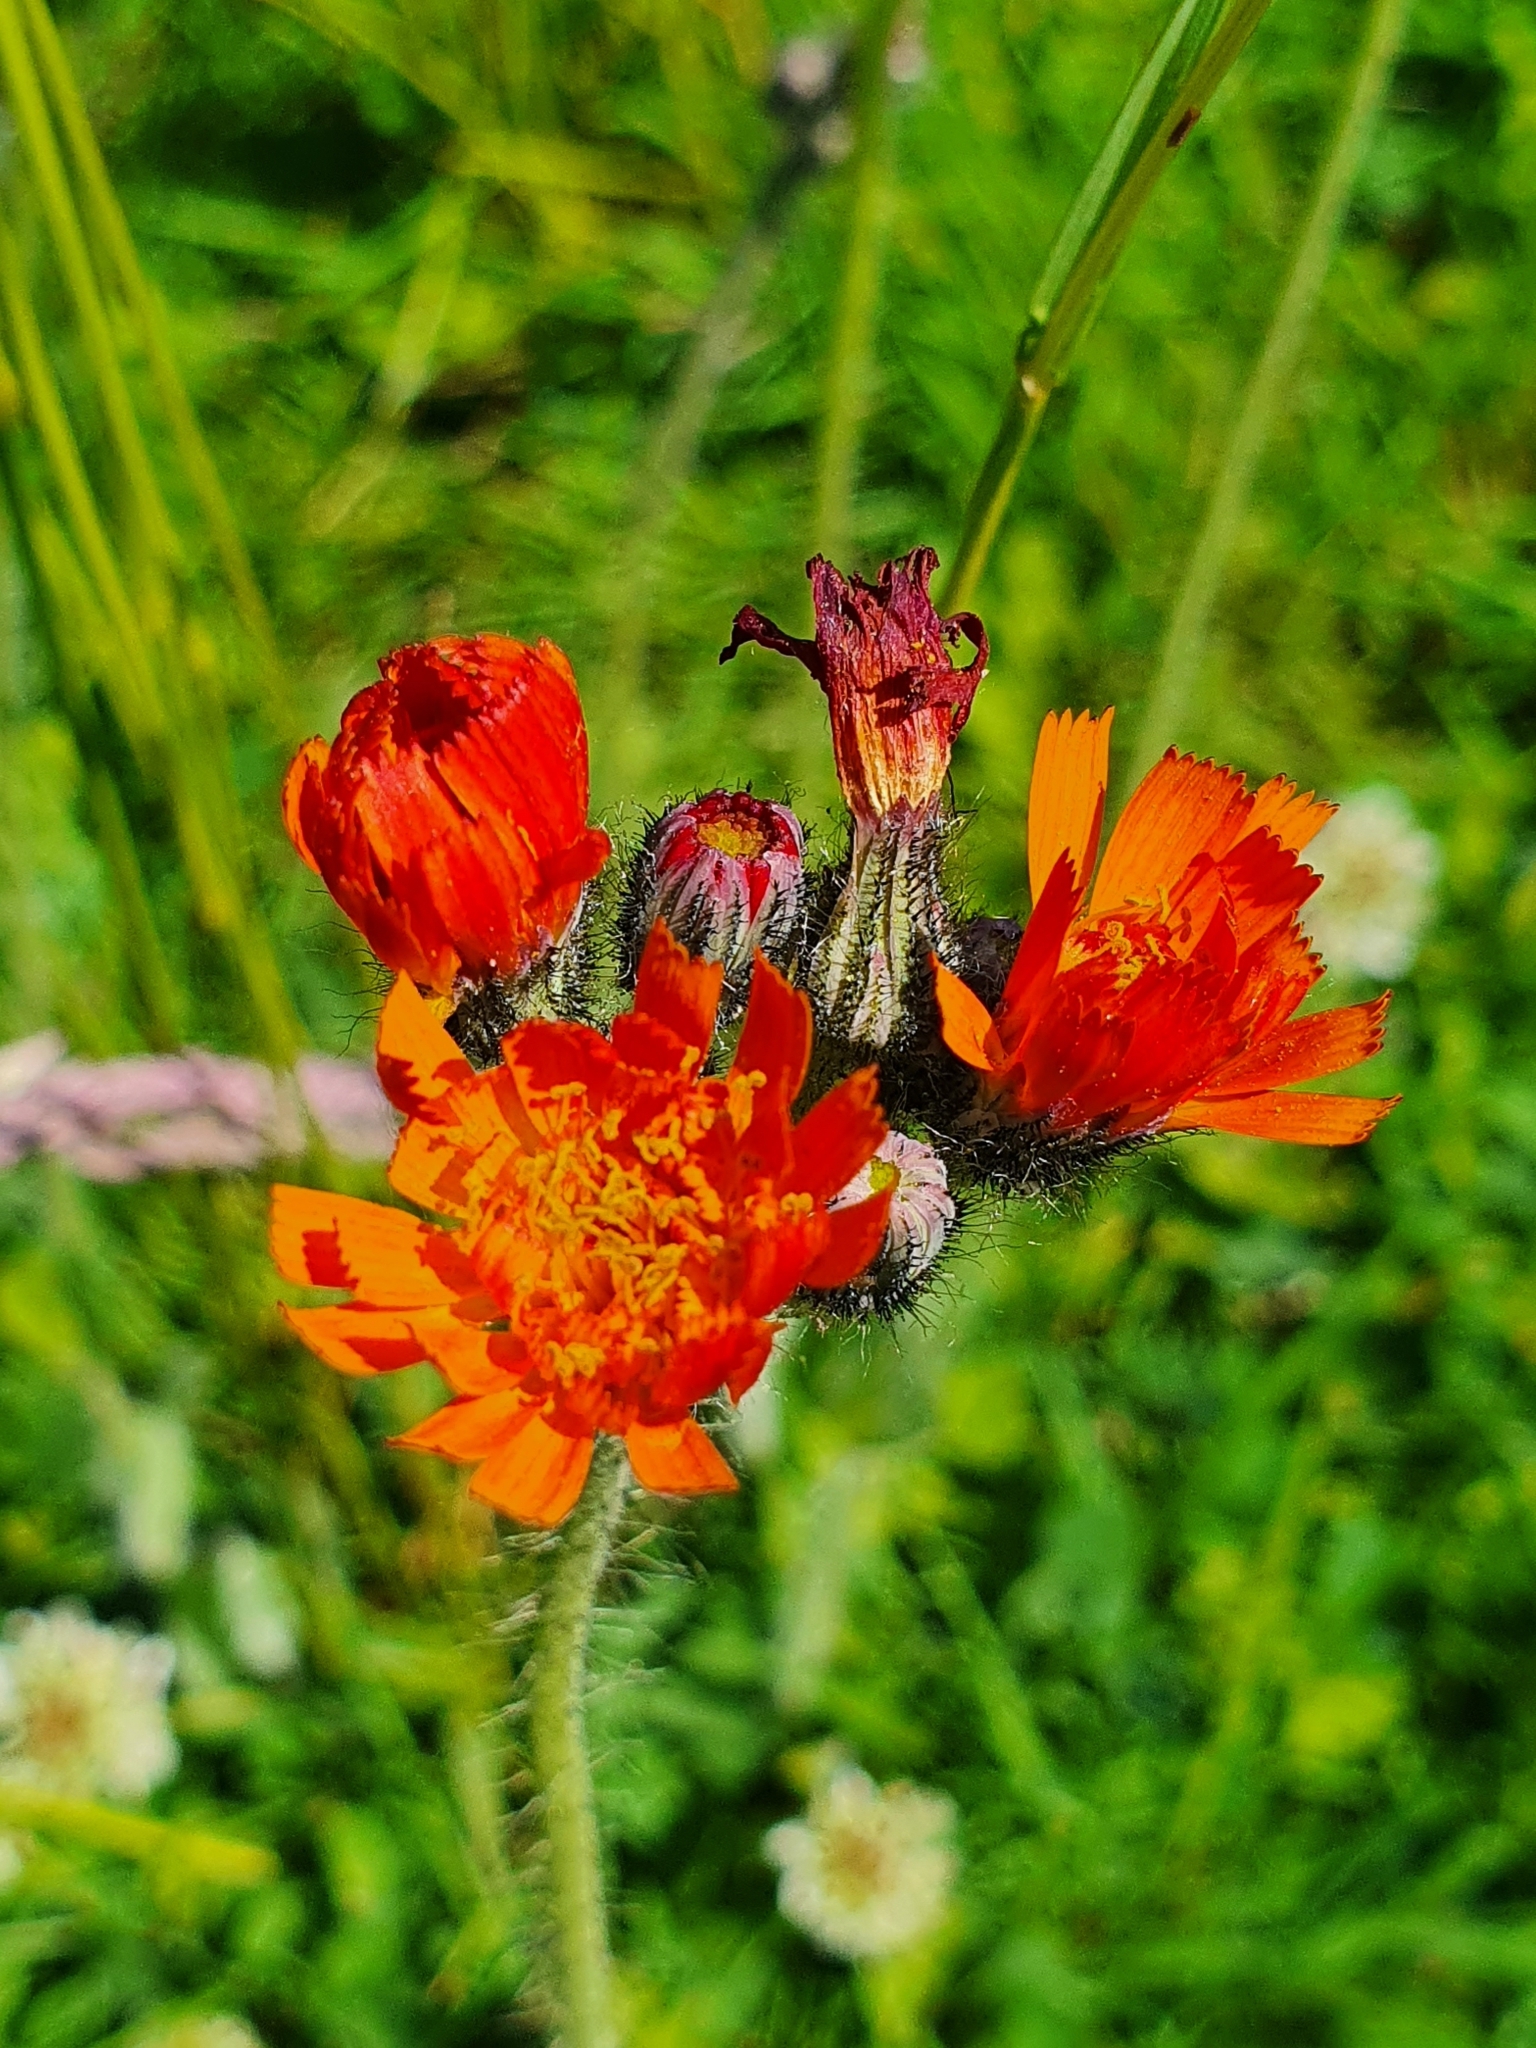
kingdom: Plantae
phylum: Tracheophyta
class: Magnoliopsida
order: Asterales
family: Asteraceae
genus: Pilosella
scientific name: Pilosella aurantiaca
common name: Fox-and-cubs
